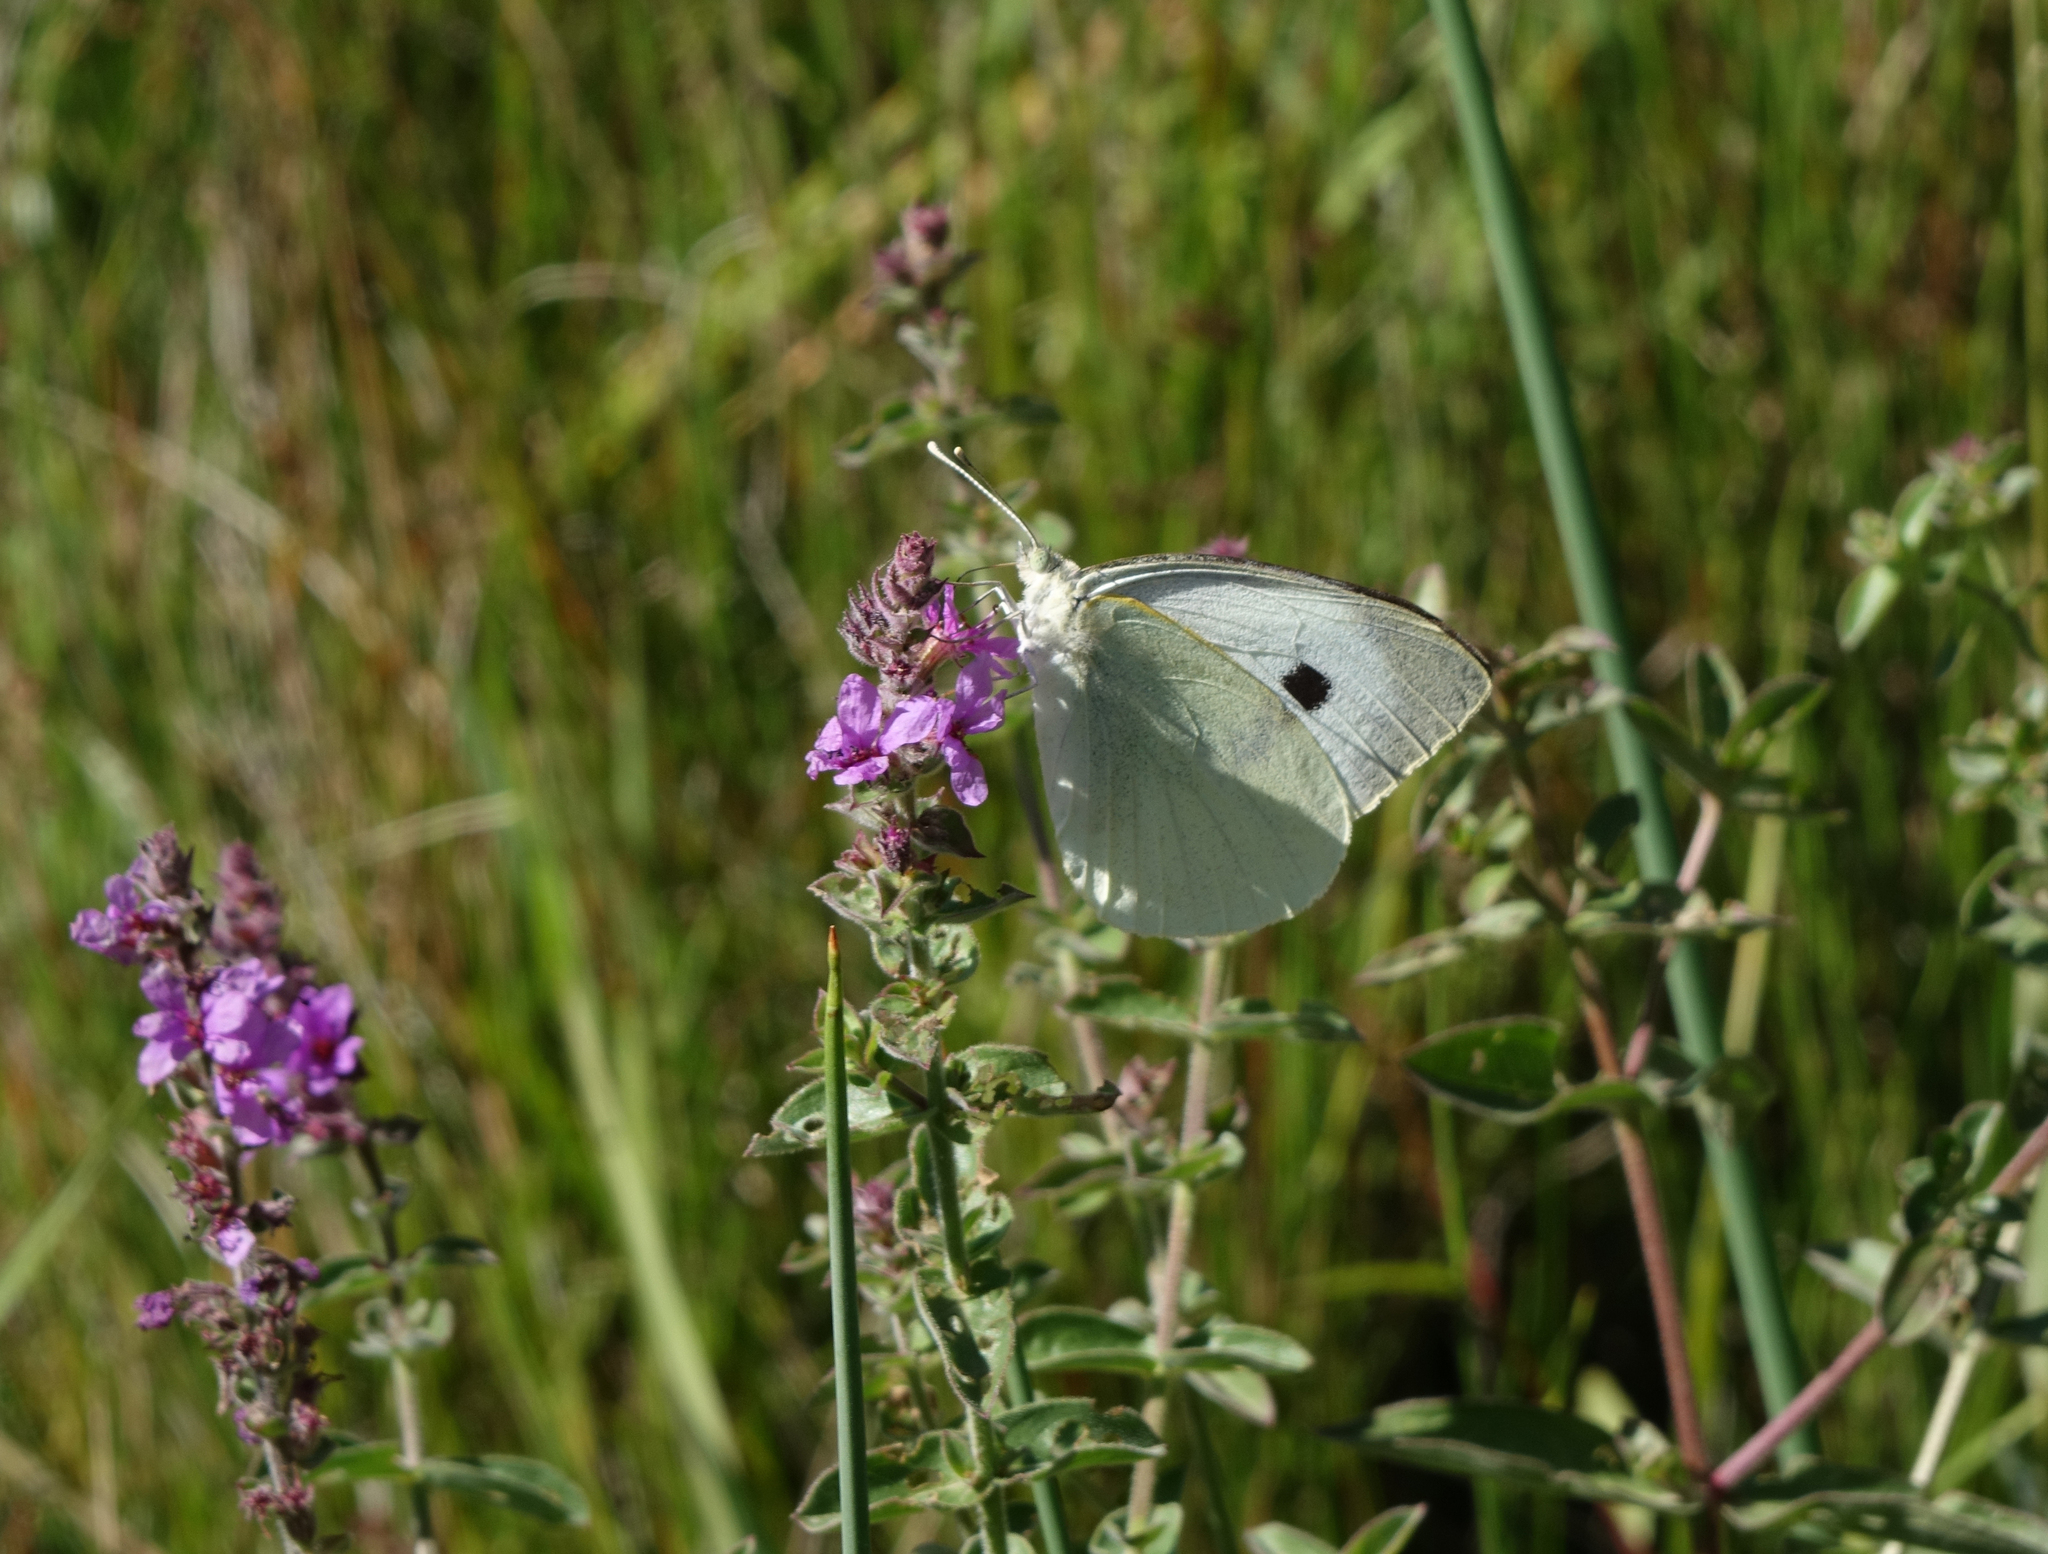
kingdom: Animalia
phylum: Arthropoda
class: Insecta
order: Lepidoptera
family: Pieridae
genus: Pieris
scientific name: Pieris brassicae
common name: Large white
